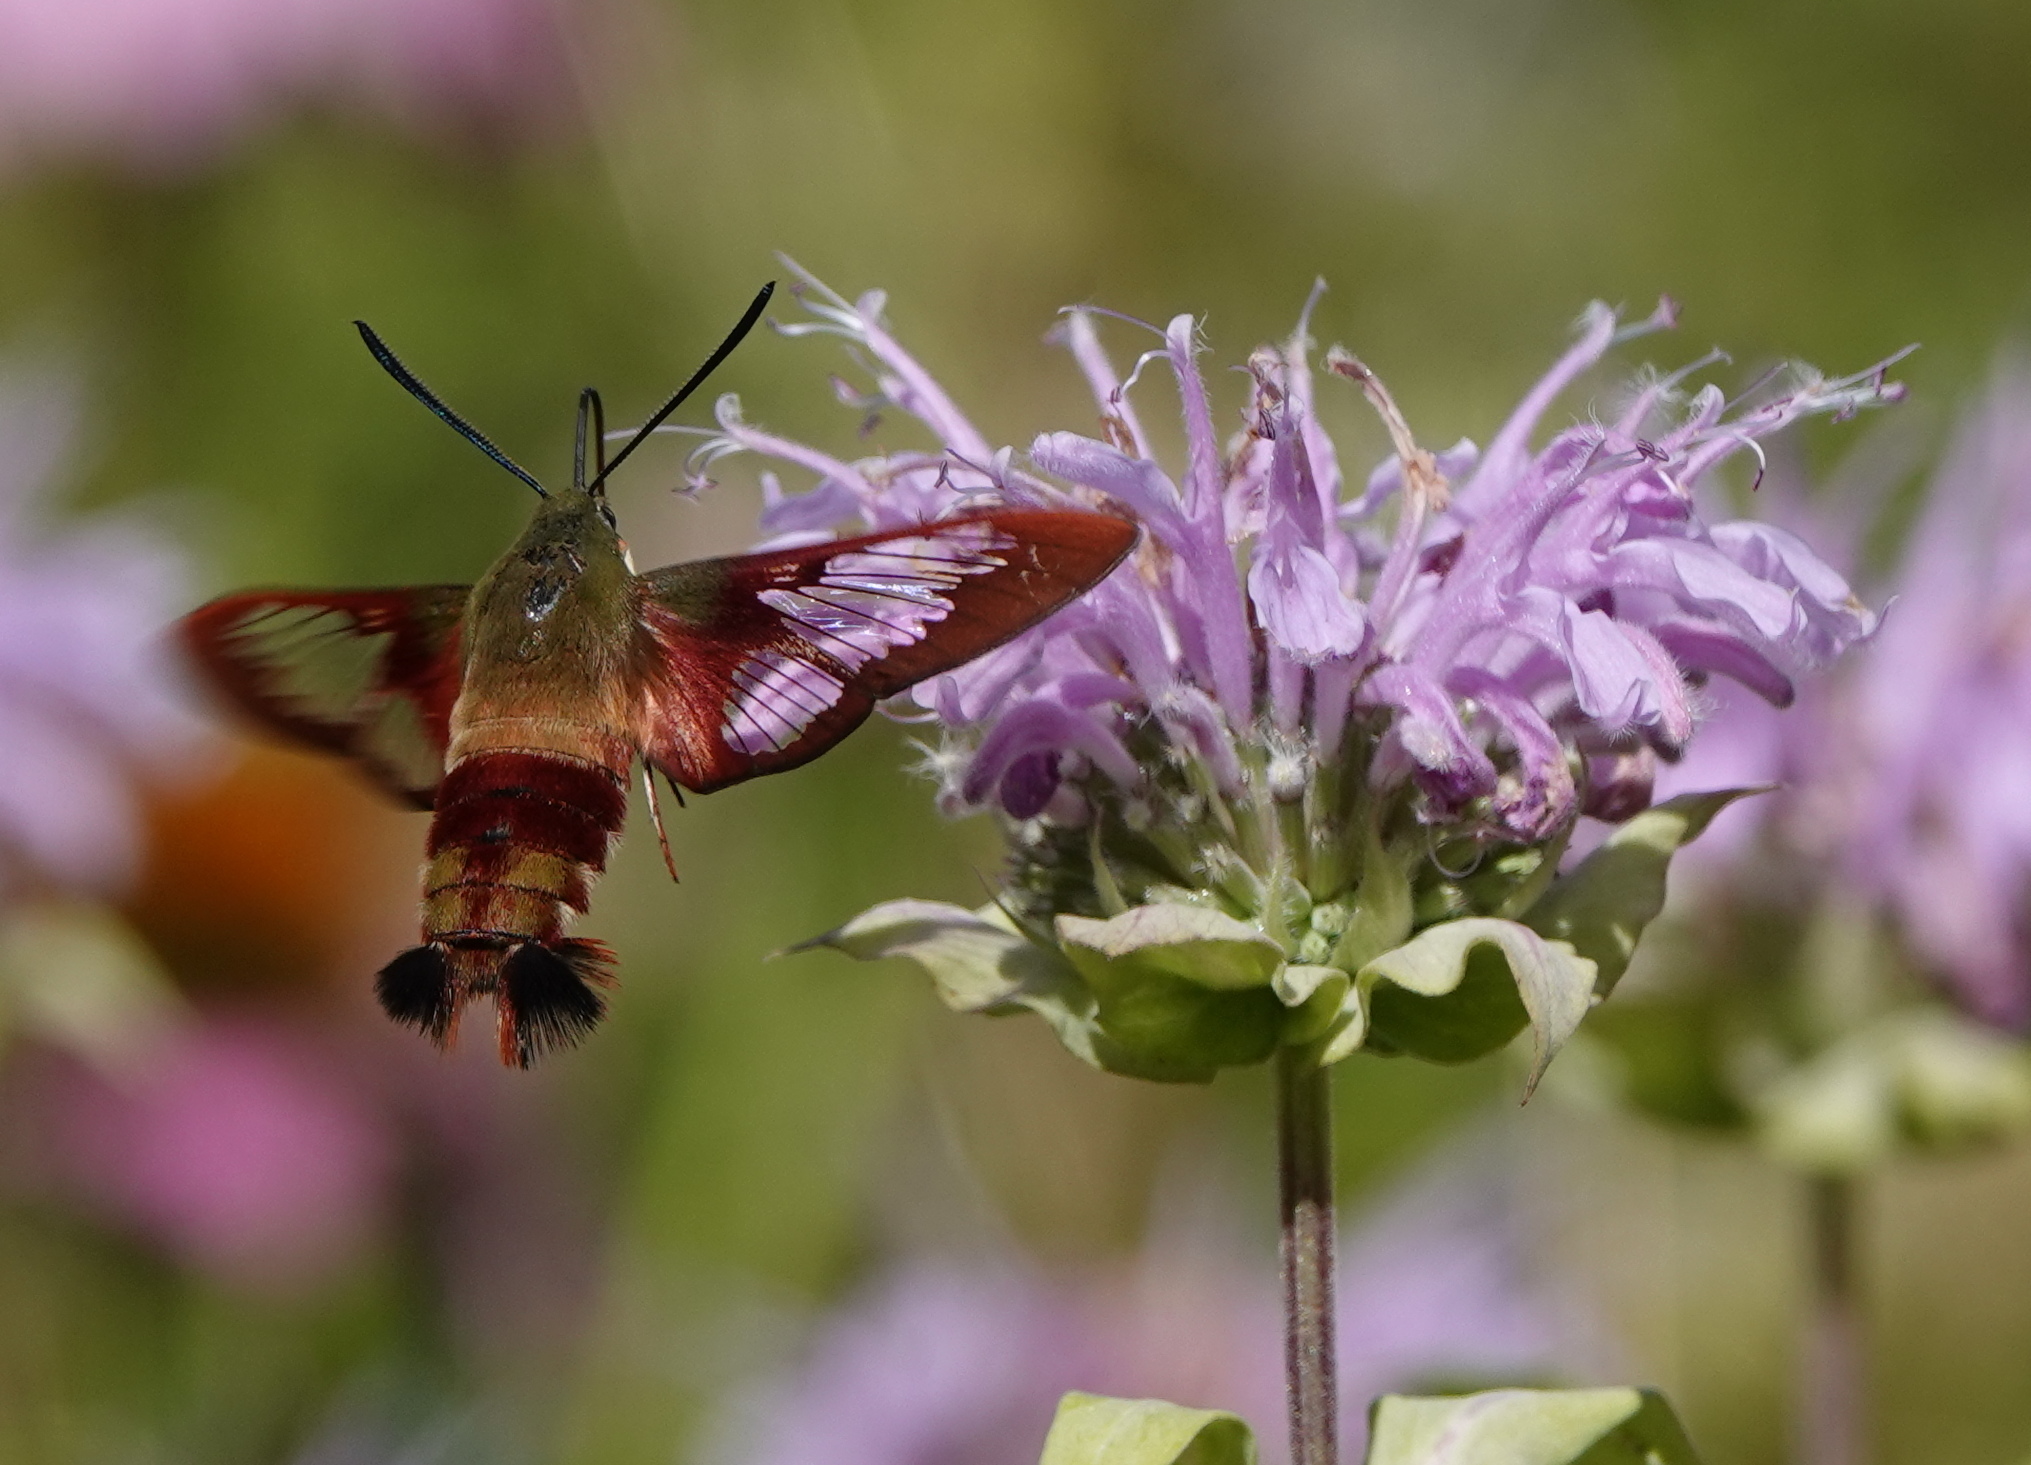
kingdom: Animalia
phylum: Arthropoda
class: Insecta
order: Lepidoptera
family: Sphingidae
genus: Hemaris
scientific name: Hemaris thysbe
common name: Common clear-wing
